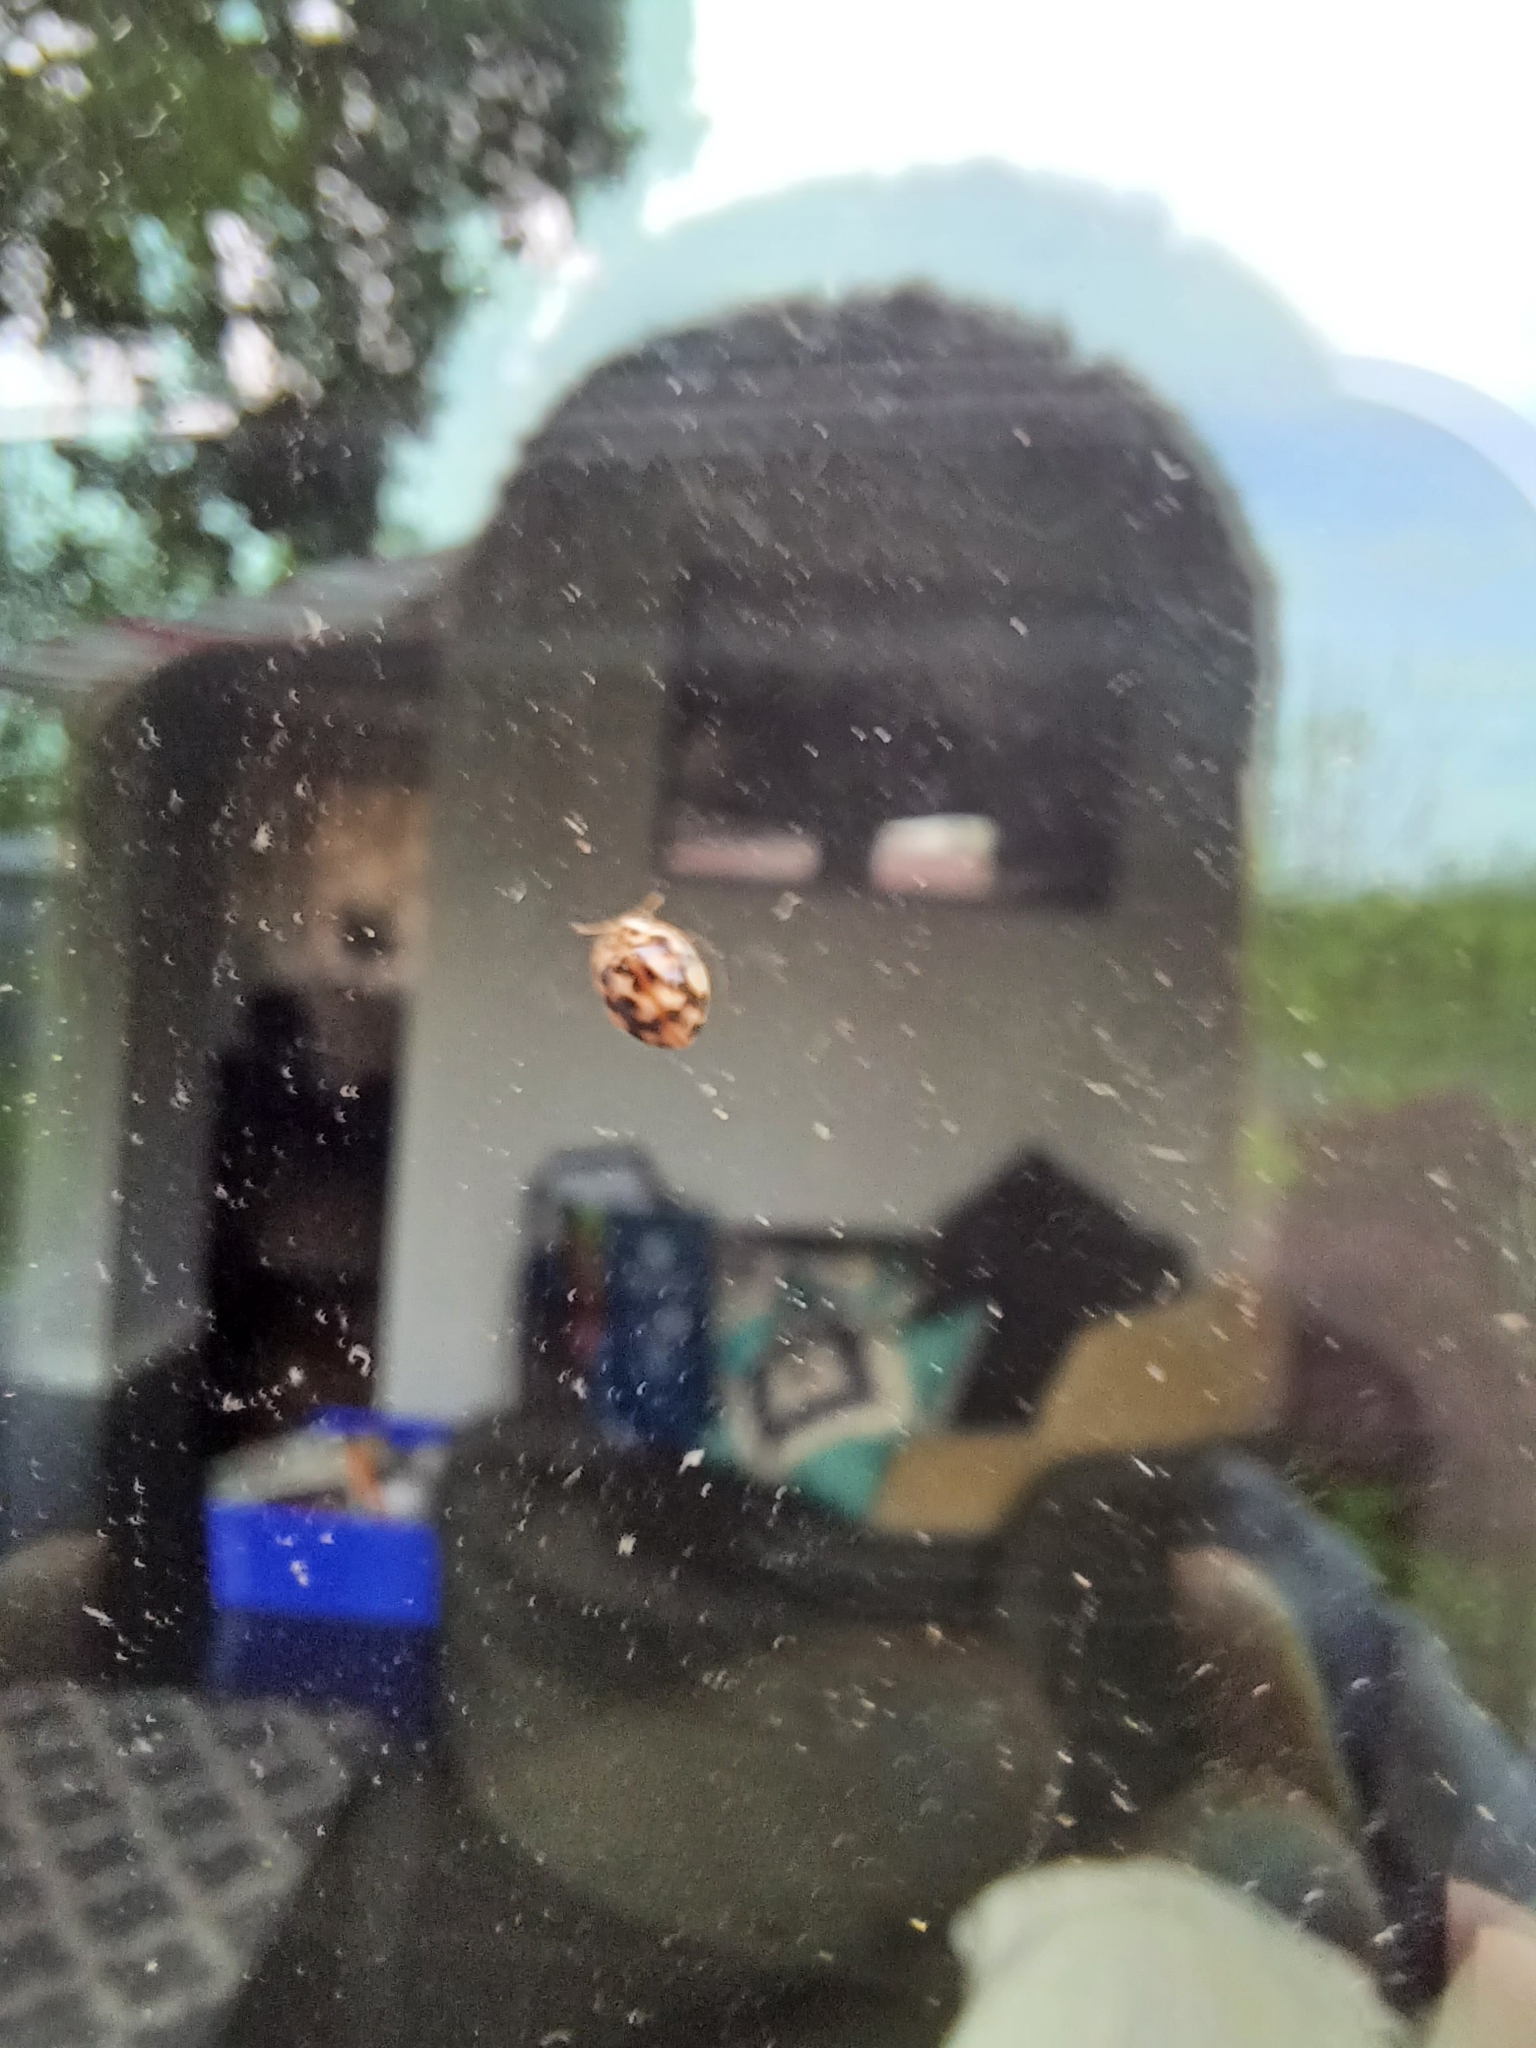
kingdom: Animalia
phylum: Arthropoda
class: Insecta
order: Coleoptera
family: Coccinellidae
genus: Psyllobora
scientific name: Psyllobora vigintimaculata
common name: Ladybird beetle
